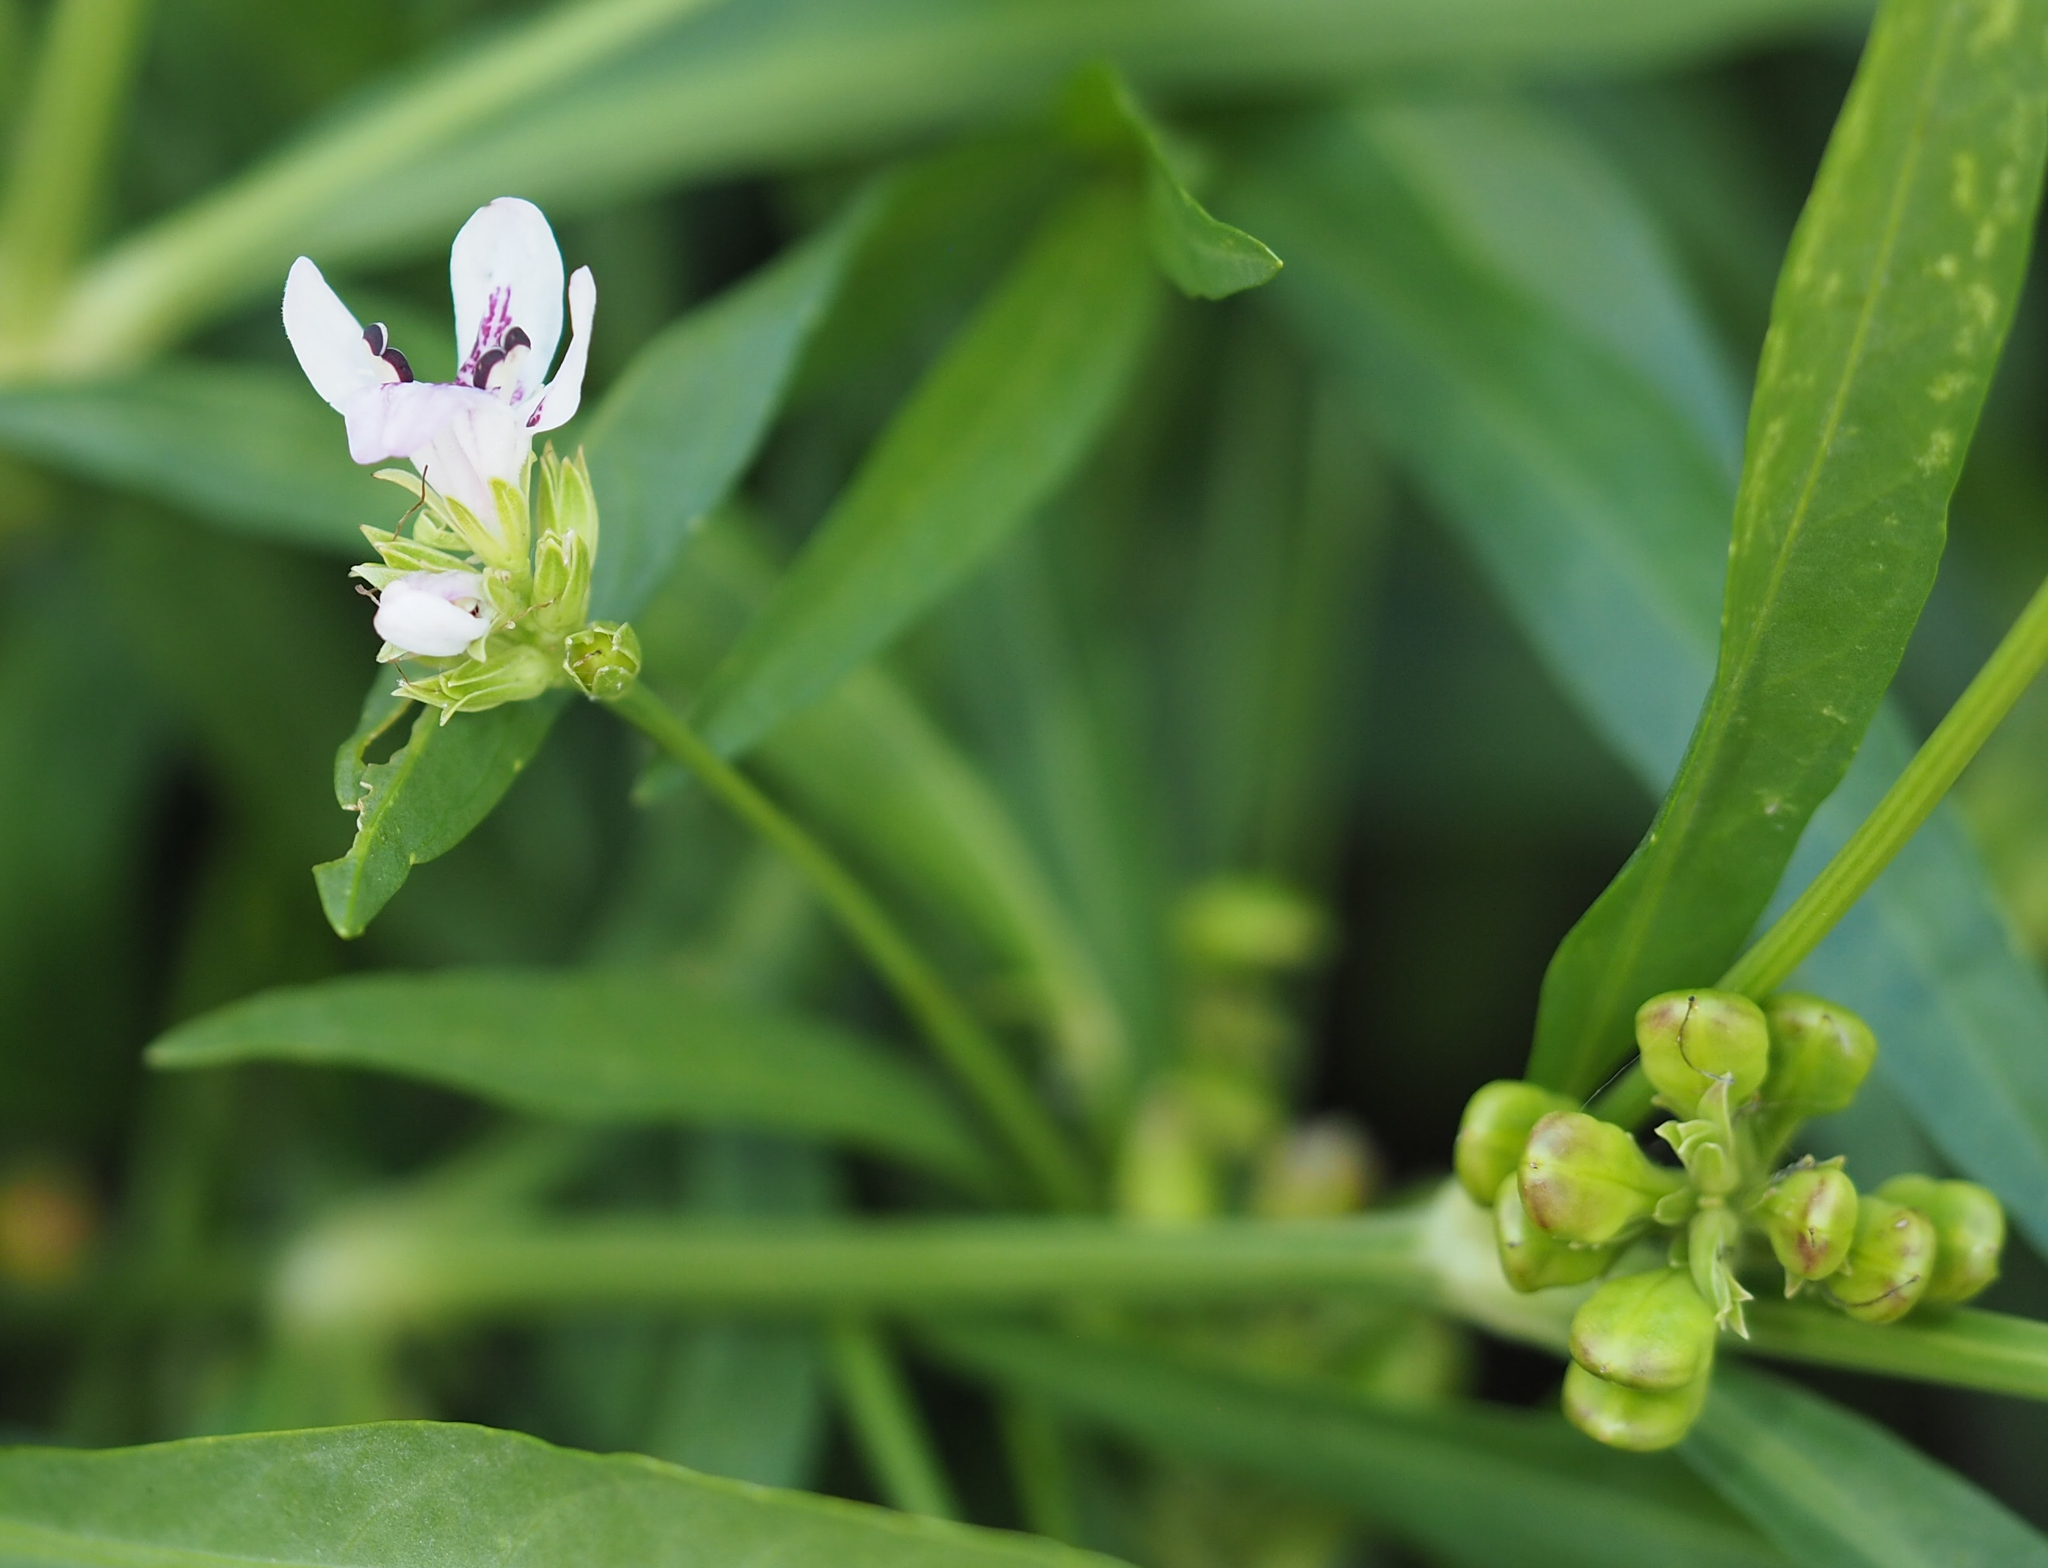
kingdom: Plantae
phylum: Tracheophyta
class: Magnoliopsida
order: Lamiales
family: Acanthaceae
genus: Dianthera
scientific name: Dianthera americana
